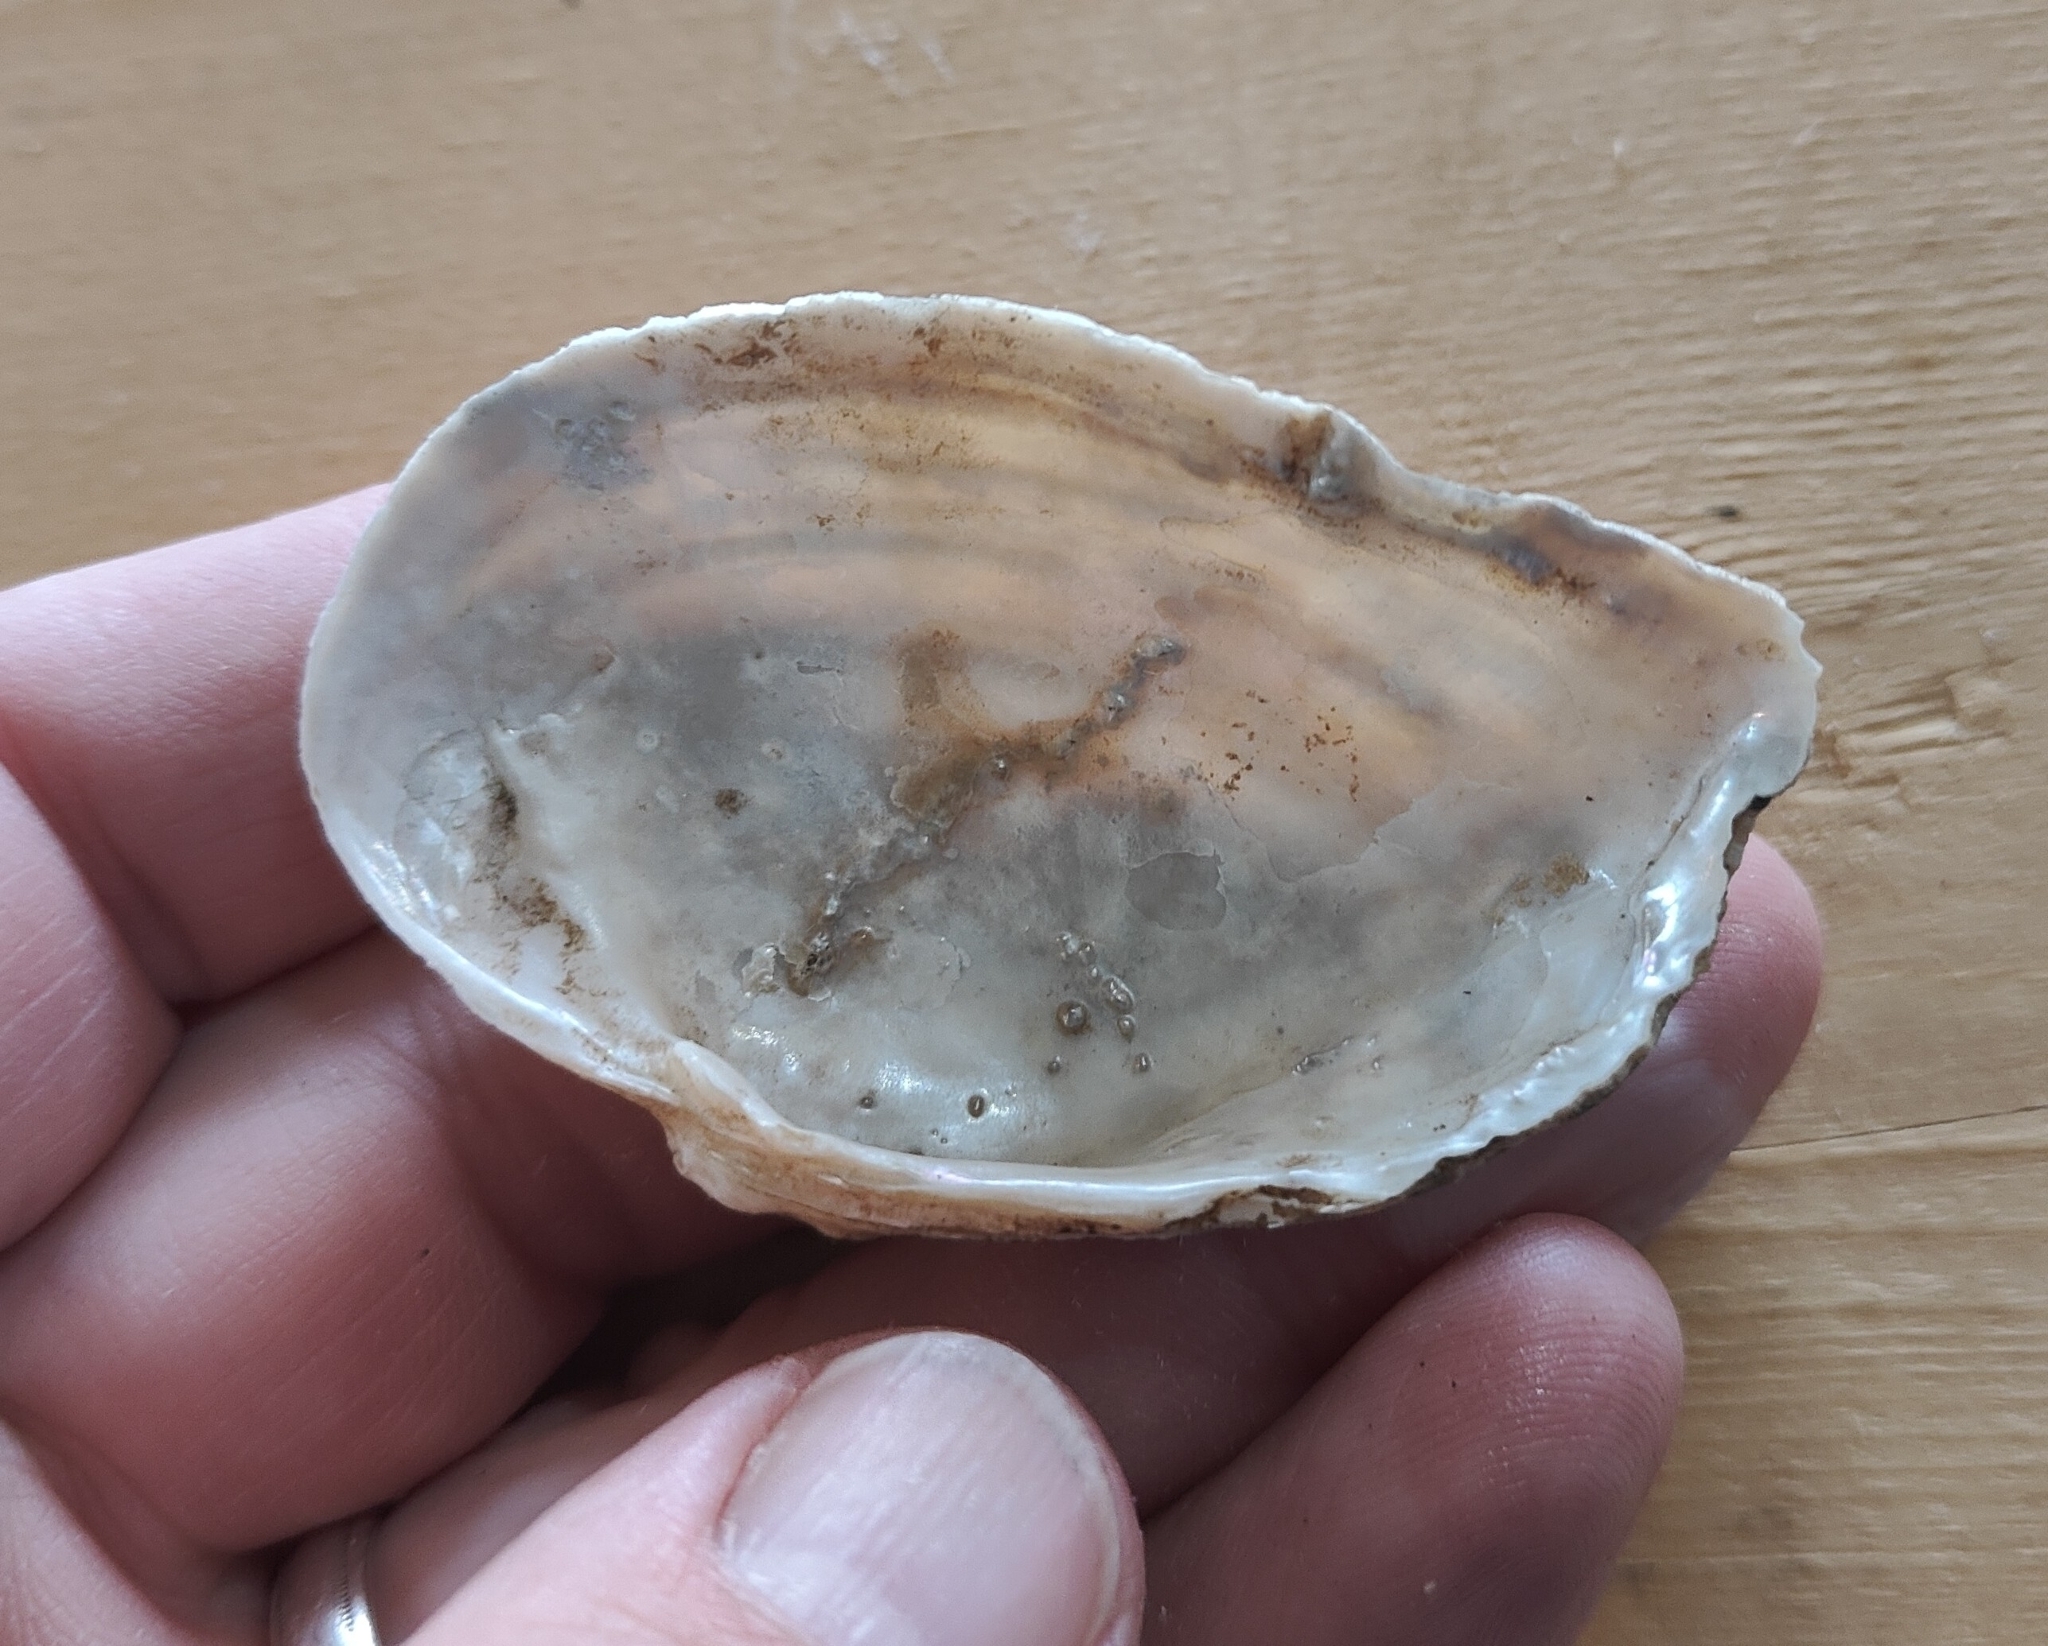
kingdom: Animalia
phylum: Mollusca
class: Bivalvia
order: Unionida
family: Unionidae
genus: Alasmidonta
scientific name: Alasmidonta marginata
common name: Elktoe
